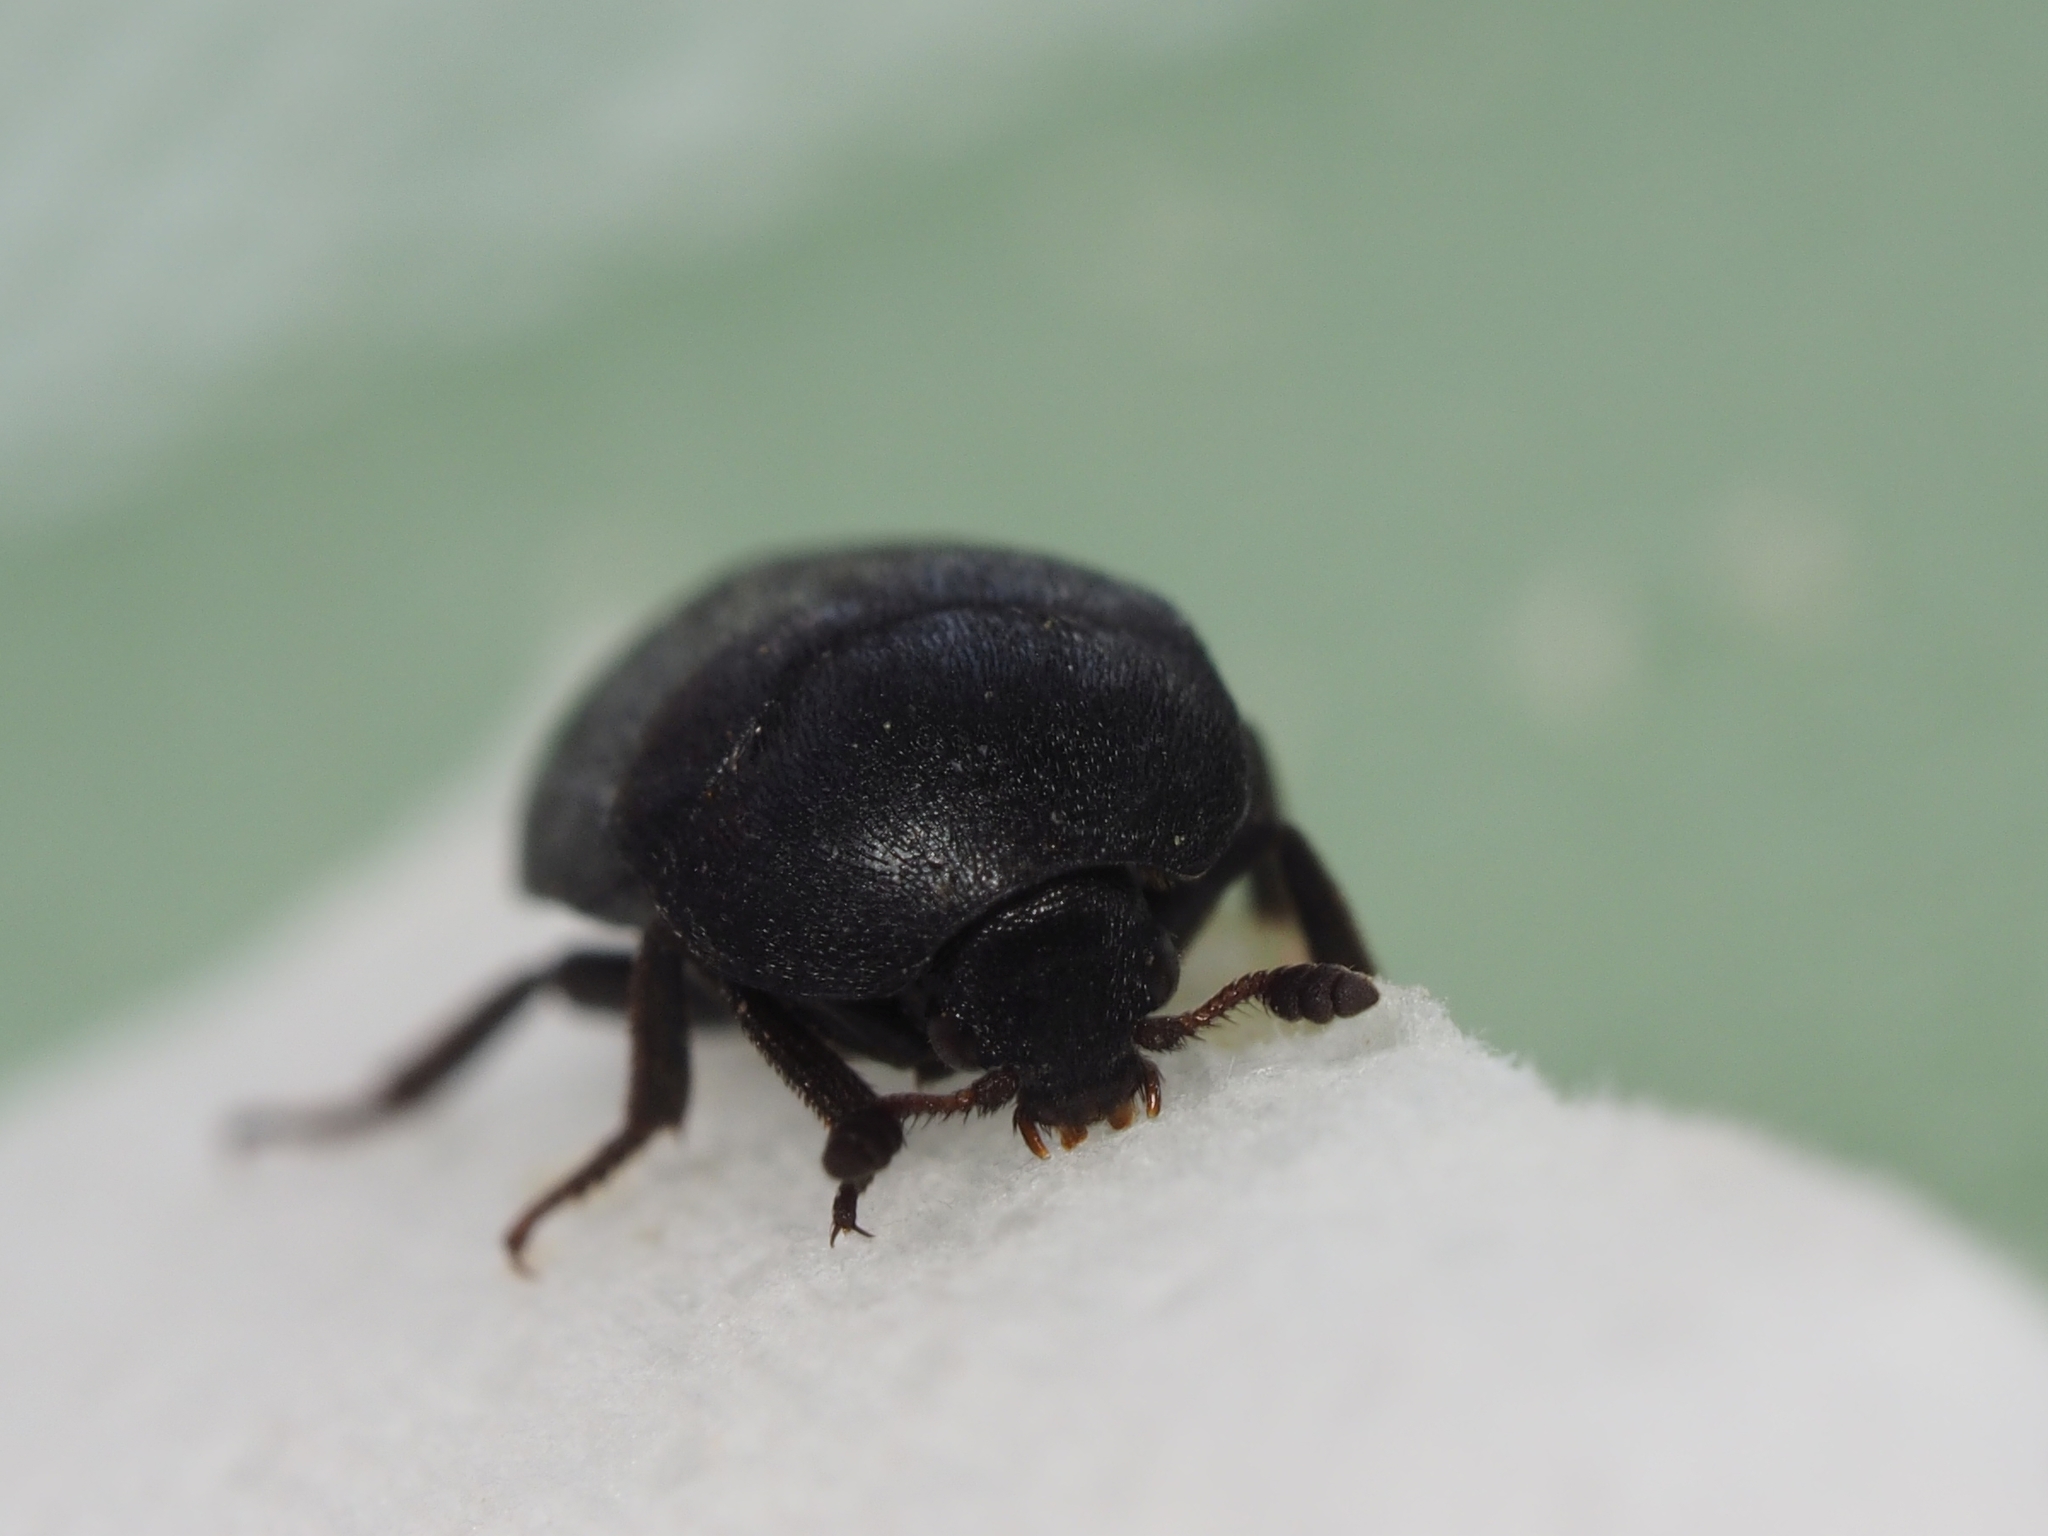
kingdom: Animalia
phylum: Arthropoda
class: Insecta
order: Coleoptera
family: Dermestidae
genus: Dermestes
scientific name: Dermestes fuliginosus
